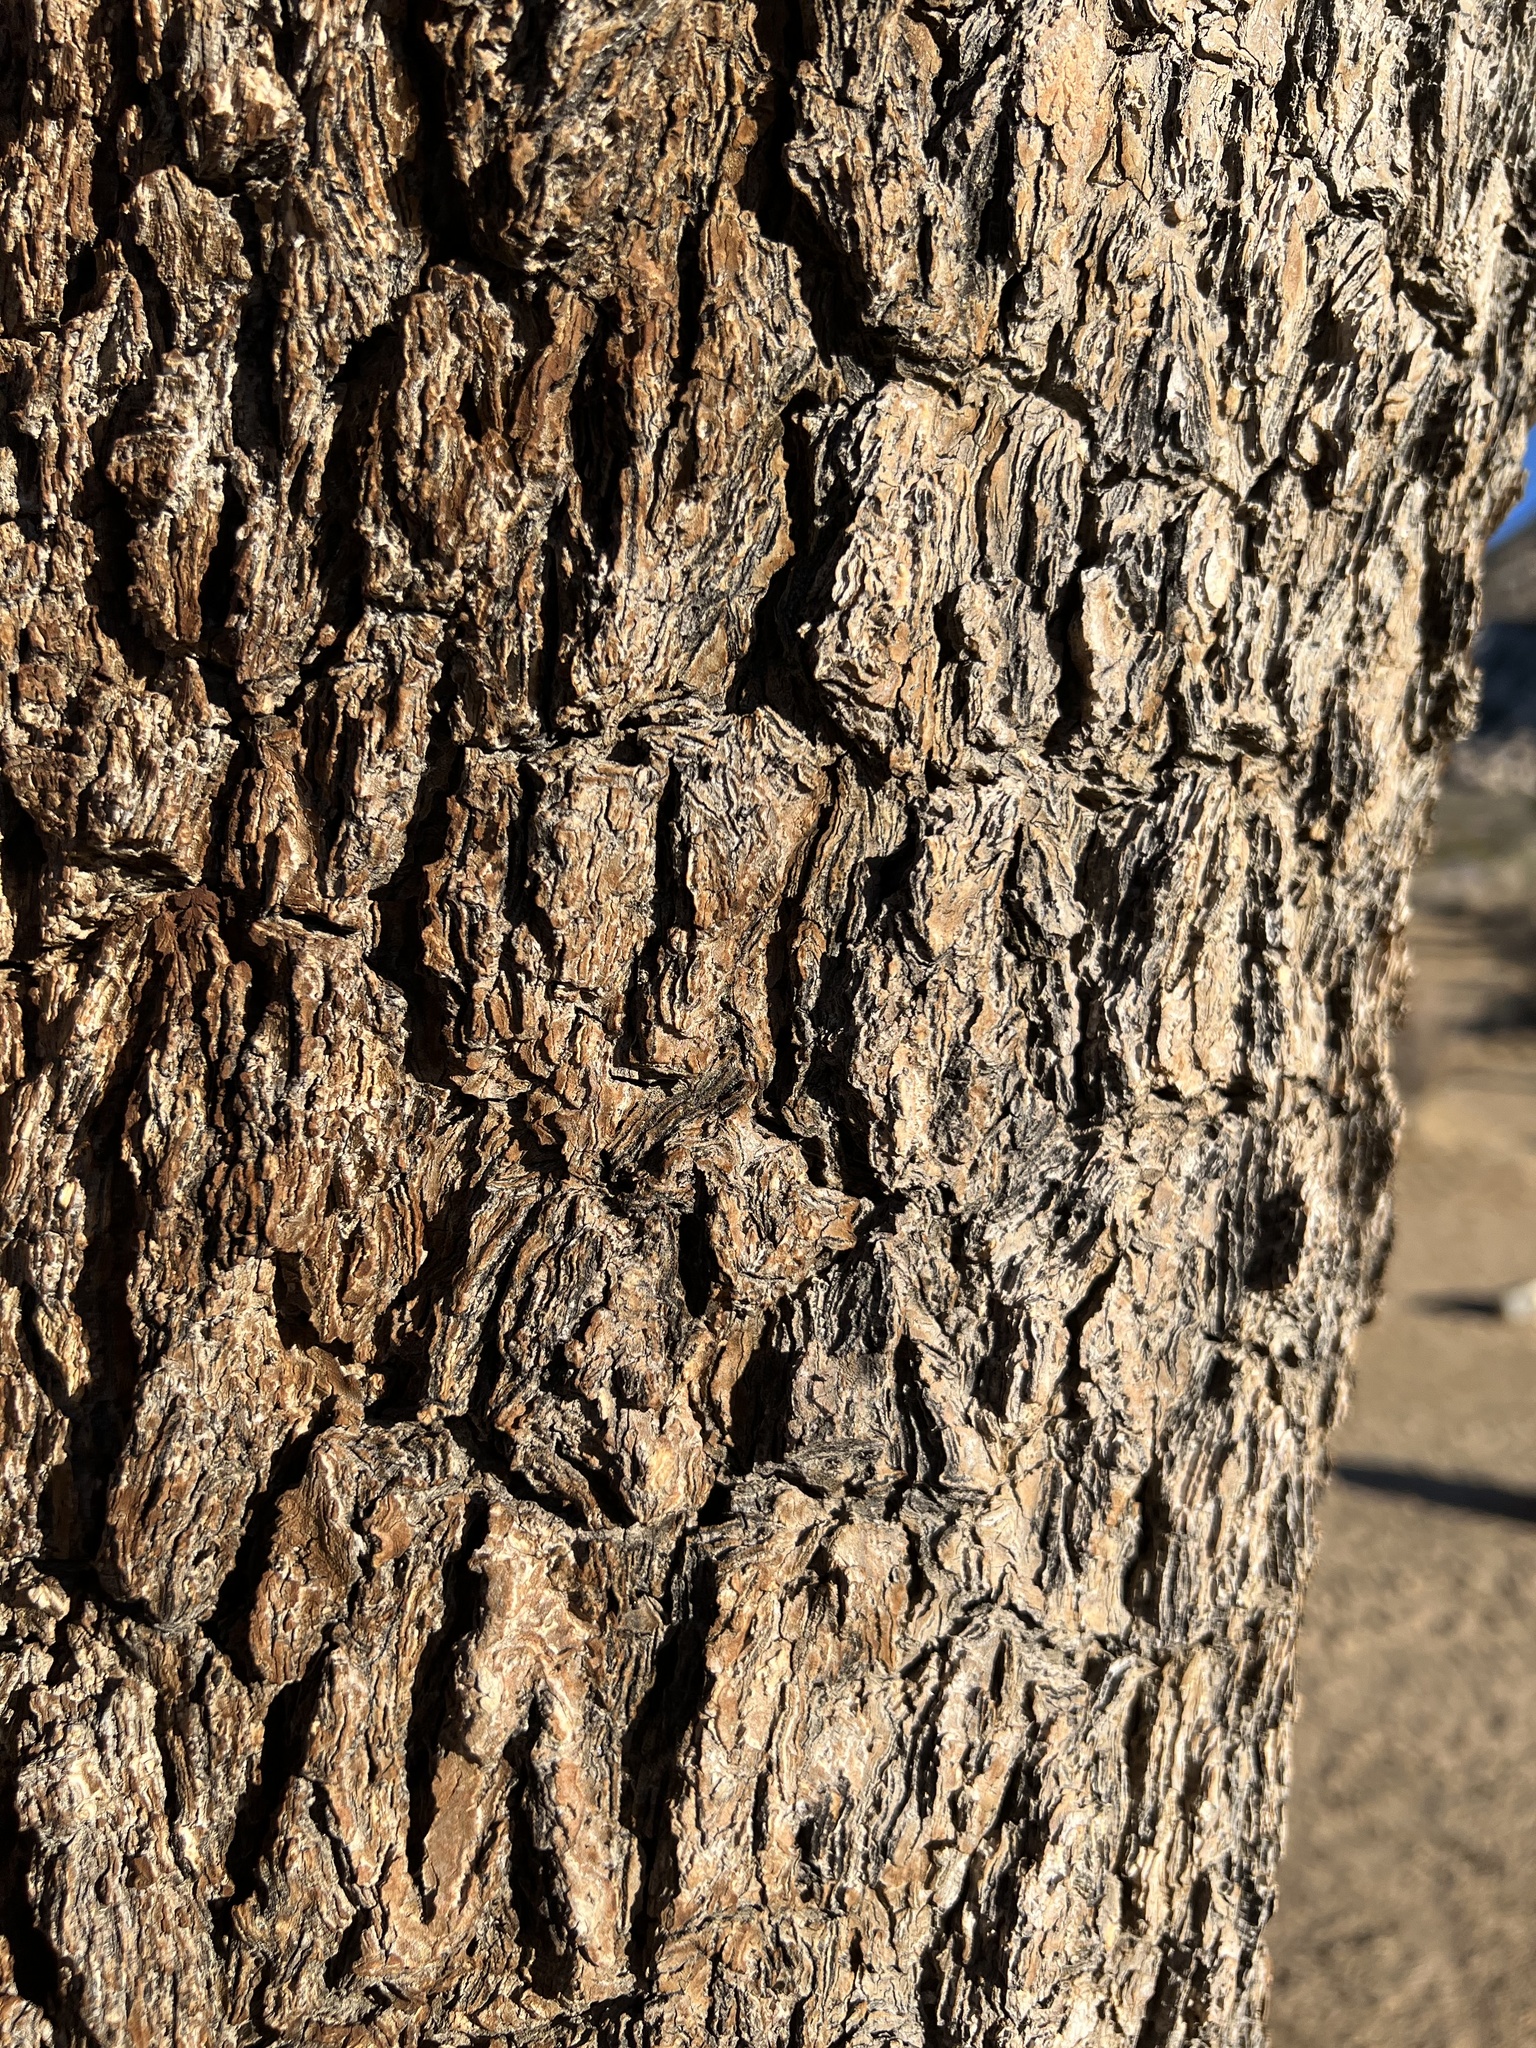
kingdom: Plantae
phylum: Tracheophyta
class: Liliopsida
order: Asparagales
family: Asparagaceae
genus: Yucca
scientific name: Yucca brevifolia
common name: Joshua tree
